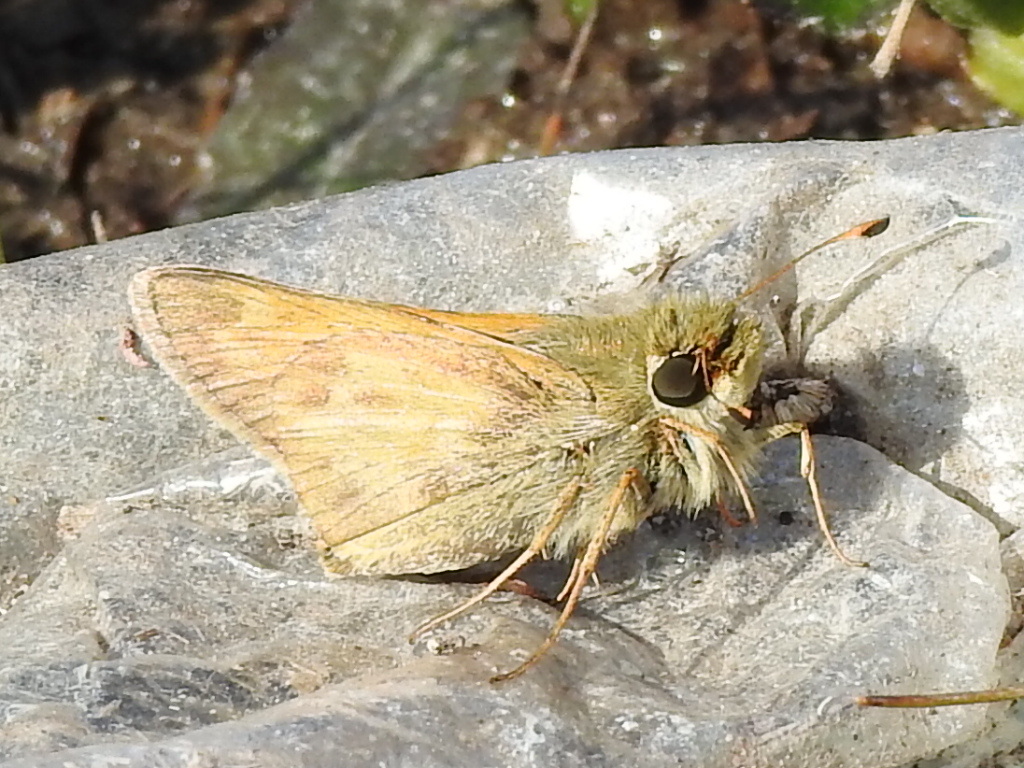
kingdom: Animalia
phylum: Arthropoda
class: Insecta
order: Lepidoptera
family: Hesperiidae
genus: Atalopedes
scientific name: Atalopedes
